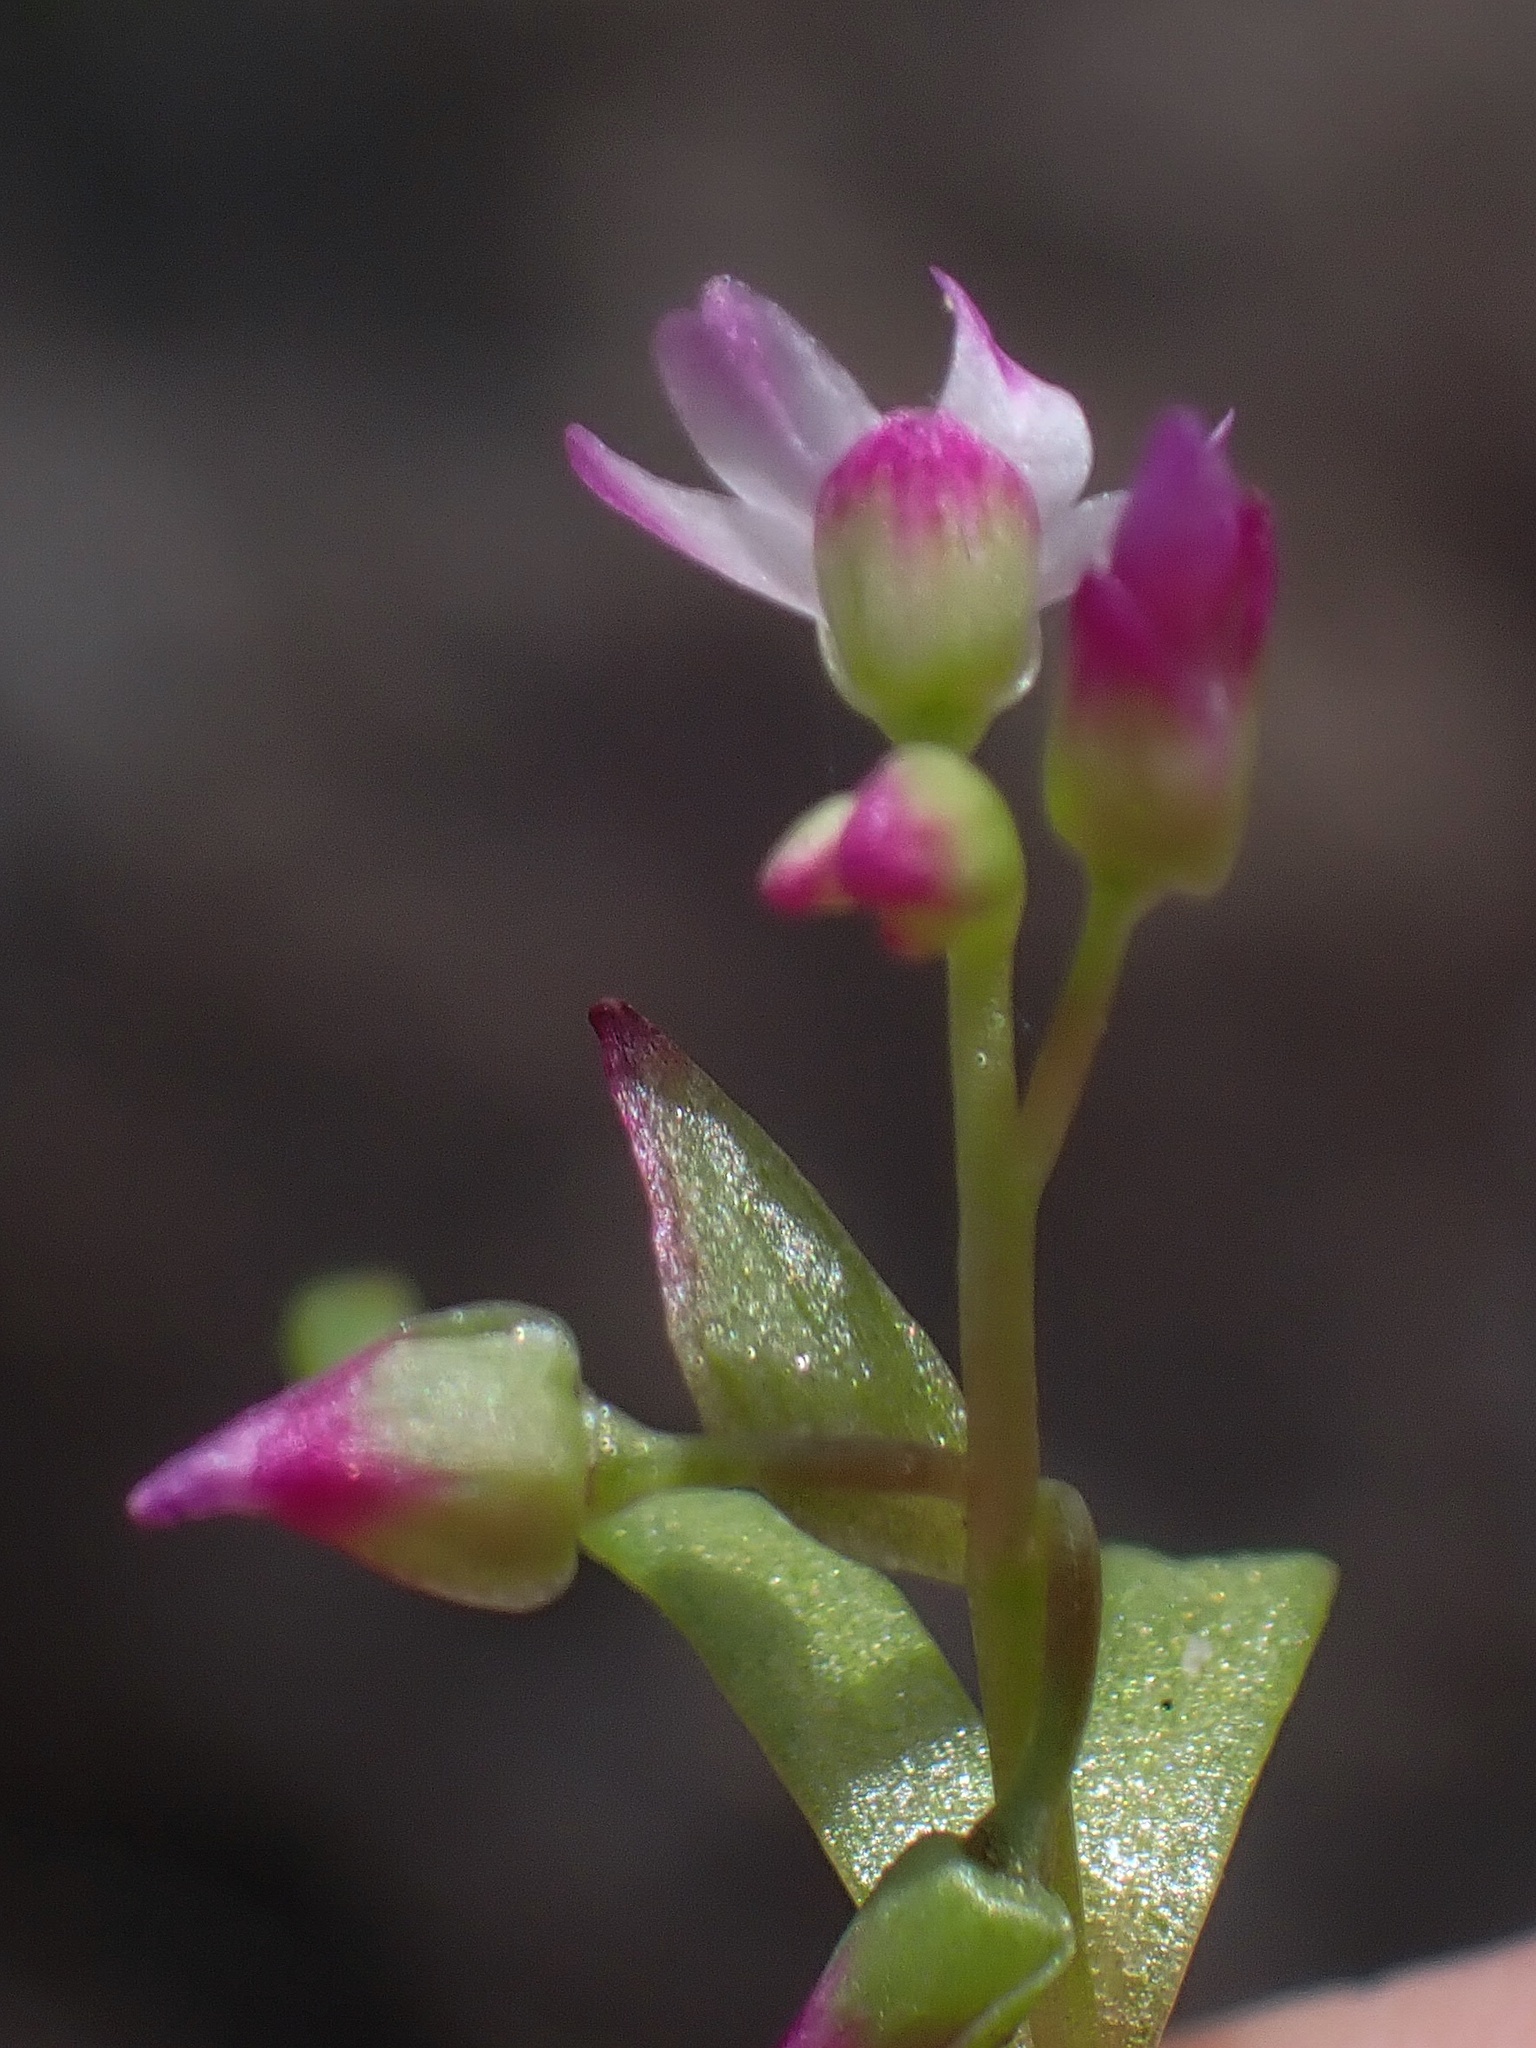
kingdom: Plantae
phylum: Tracheophyta
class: Magnoliopsida
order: Caryophyllales
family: Montiaceae
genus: Claytonia
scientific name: Claytonia parviflora
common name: Indian-lettuce
